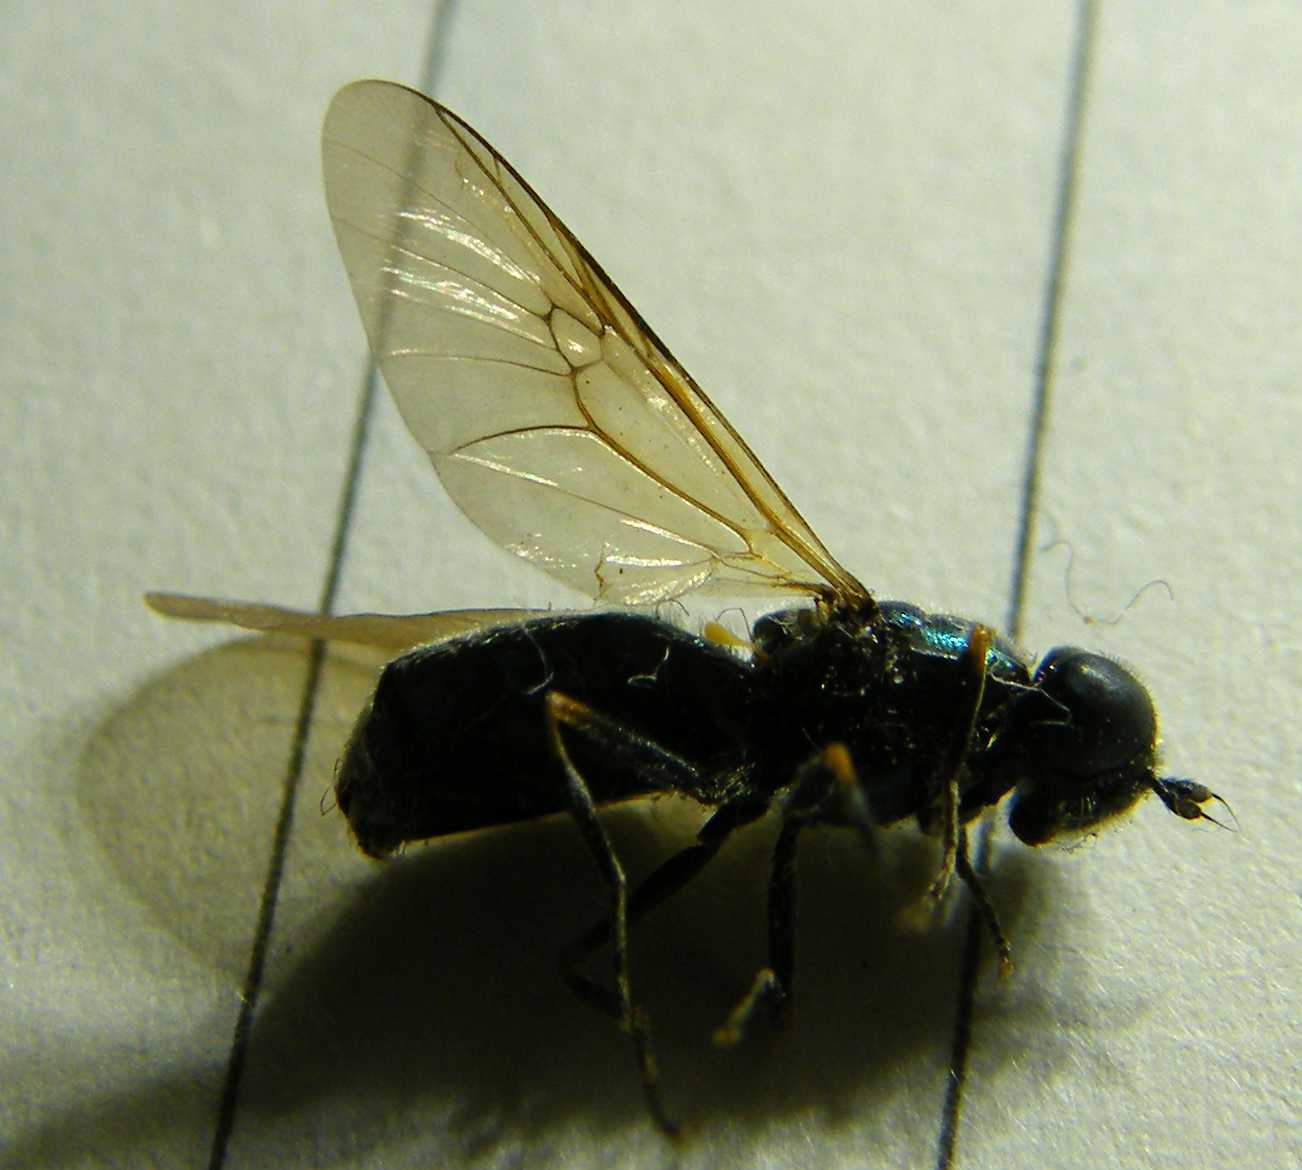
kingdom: Animalia
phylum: Arthropoda
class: Insecta
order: Diptera
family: Stratiomyidae
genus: Chloromyia
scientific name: Chloromyia formosa
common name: Soldier fly
